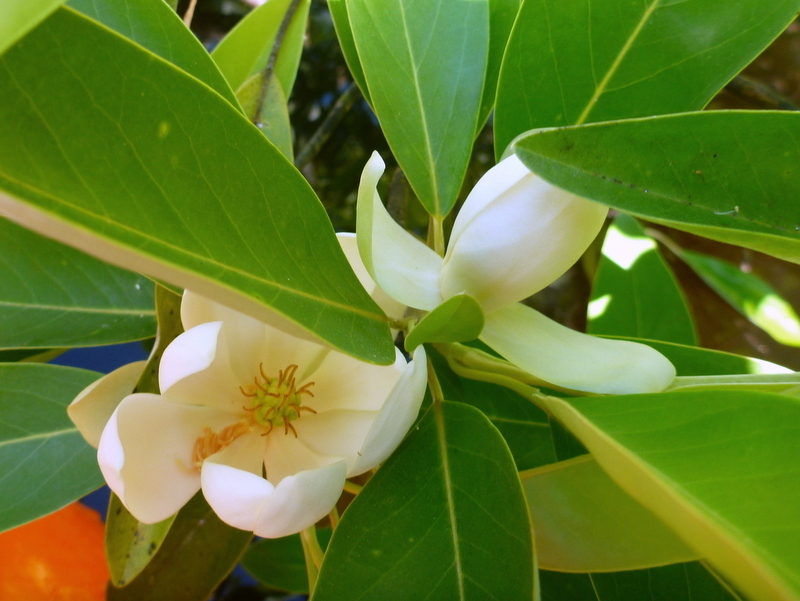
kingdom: Plantae
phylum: Tracheophyta
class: Magnoliopsida
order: Magnoliales
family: Magnoliaceae
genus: Magnolia
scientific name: Magnolia virginiana
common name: Swamp bay
